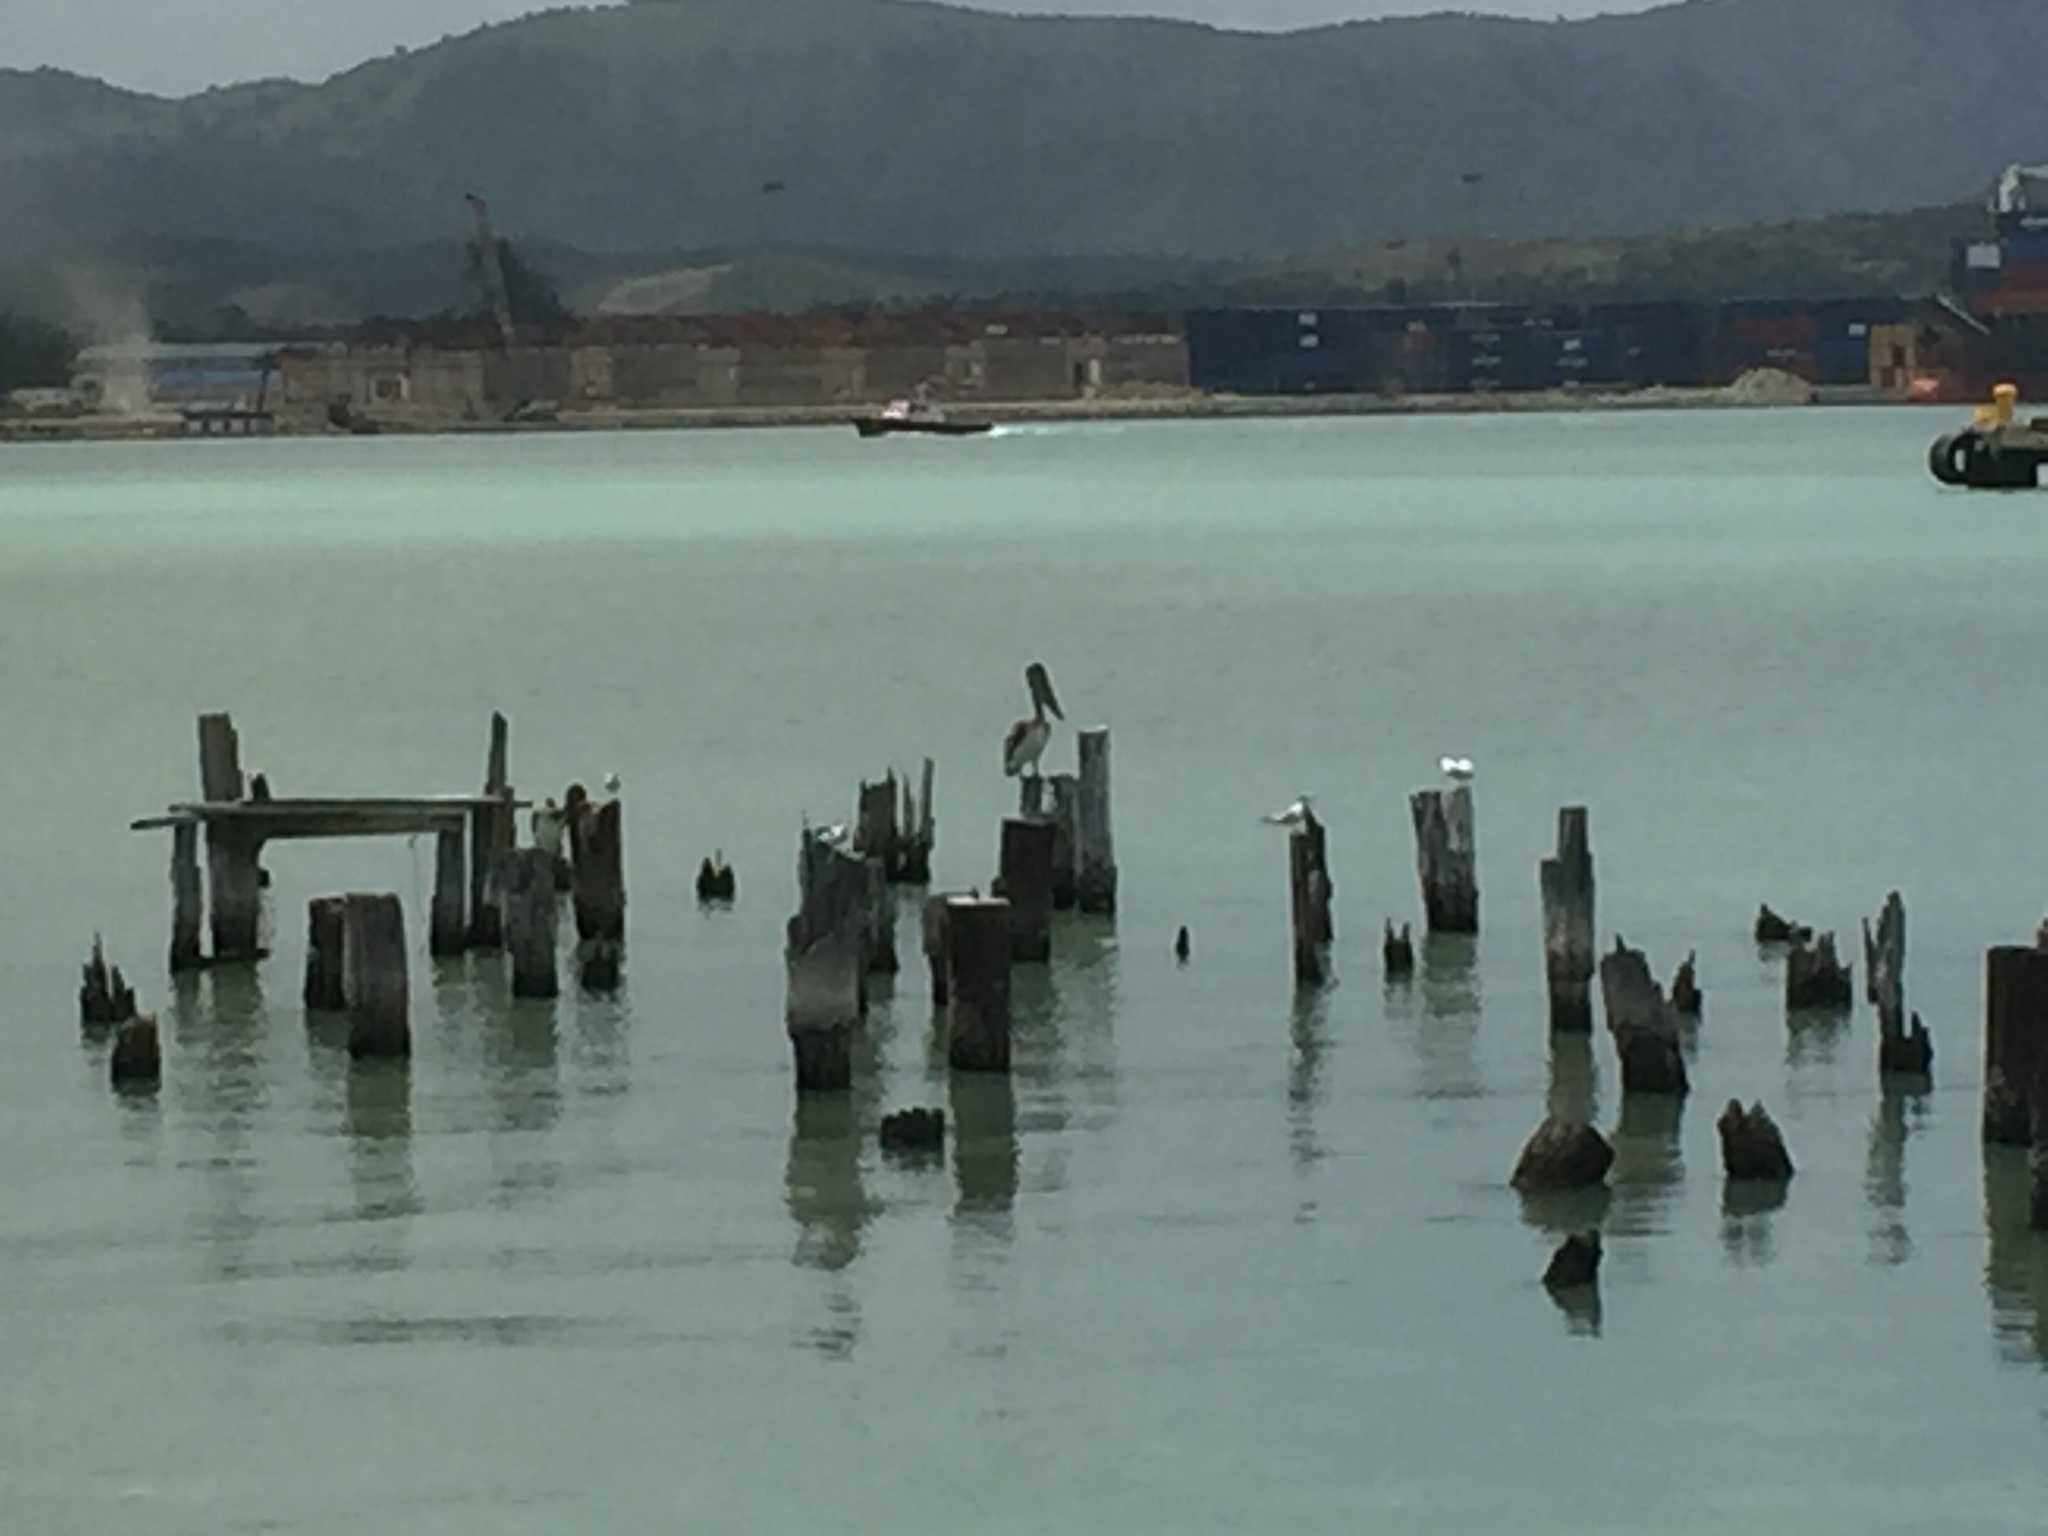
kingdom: Animalia
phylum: Chordata
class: Aves
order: Pelecaniformes
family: Pelecanidae
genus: Pelecanus
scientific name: Pelecanus occidentalis
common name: Brown pelican
